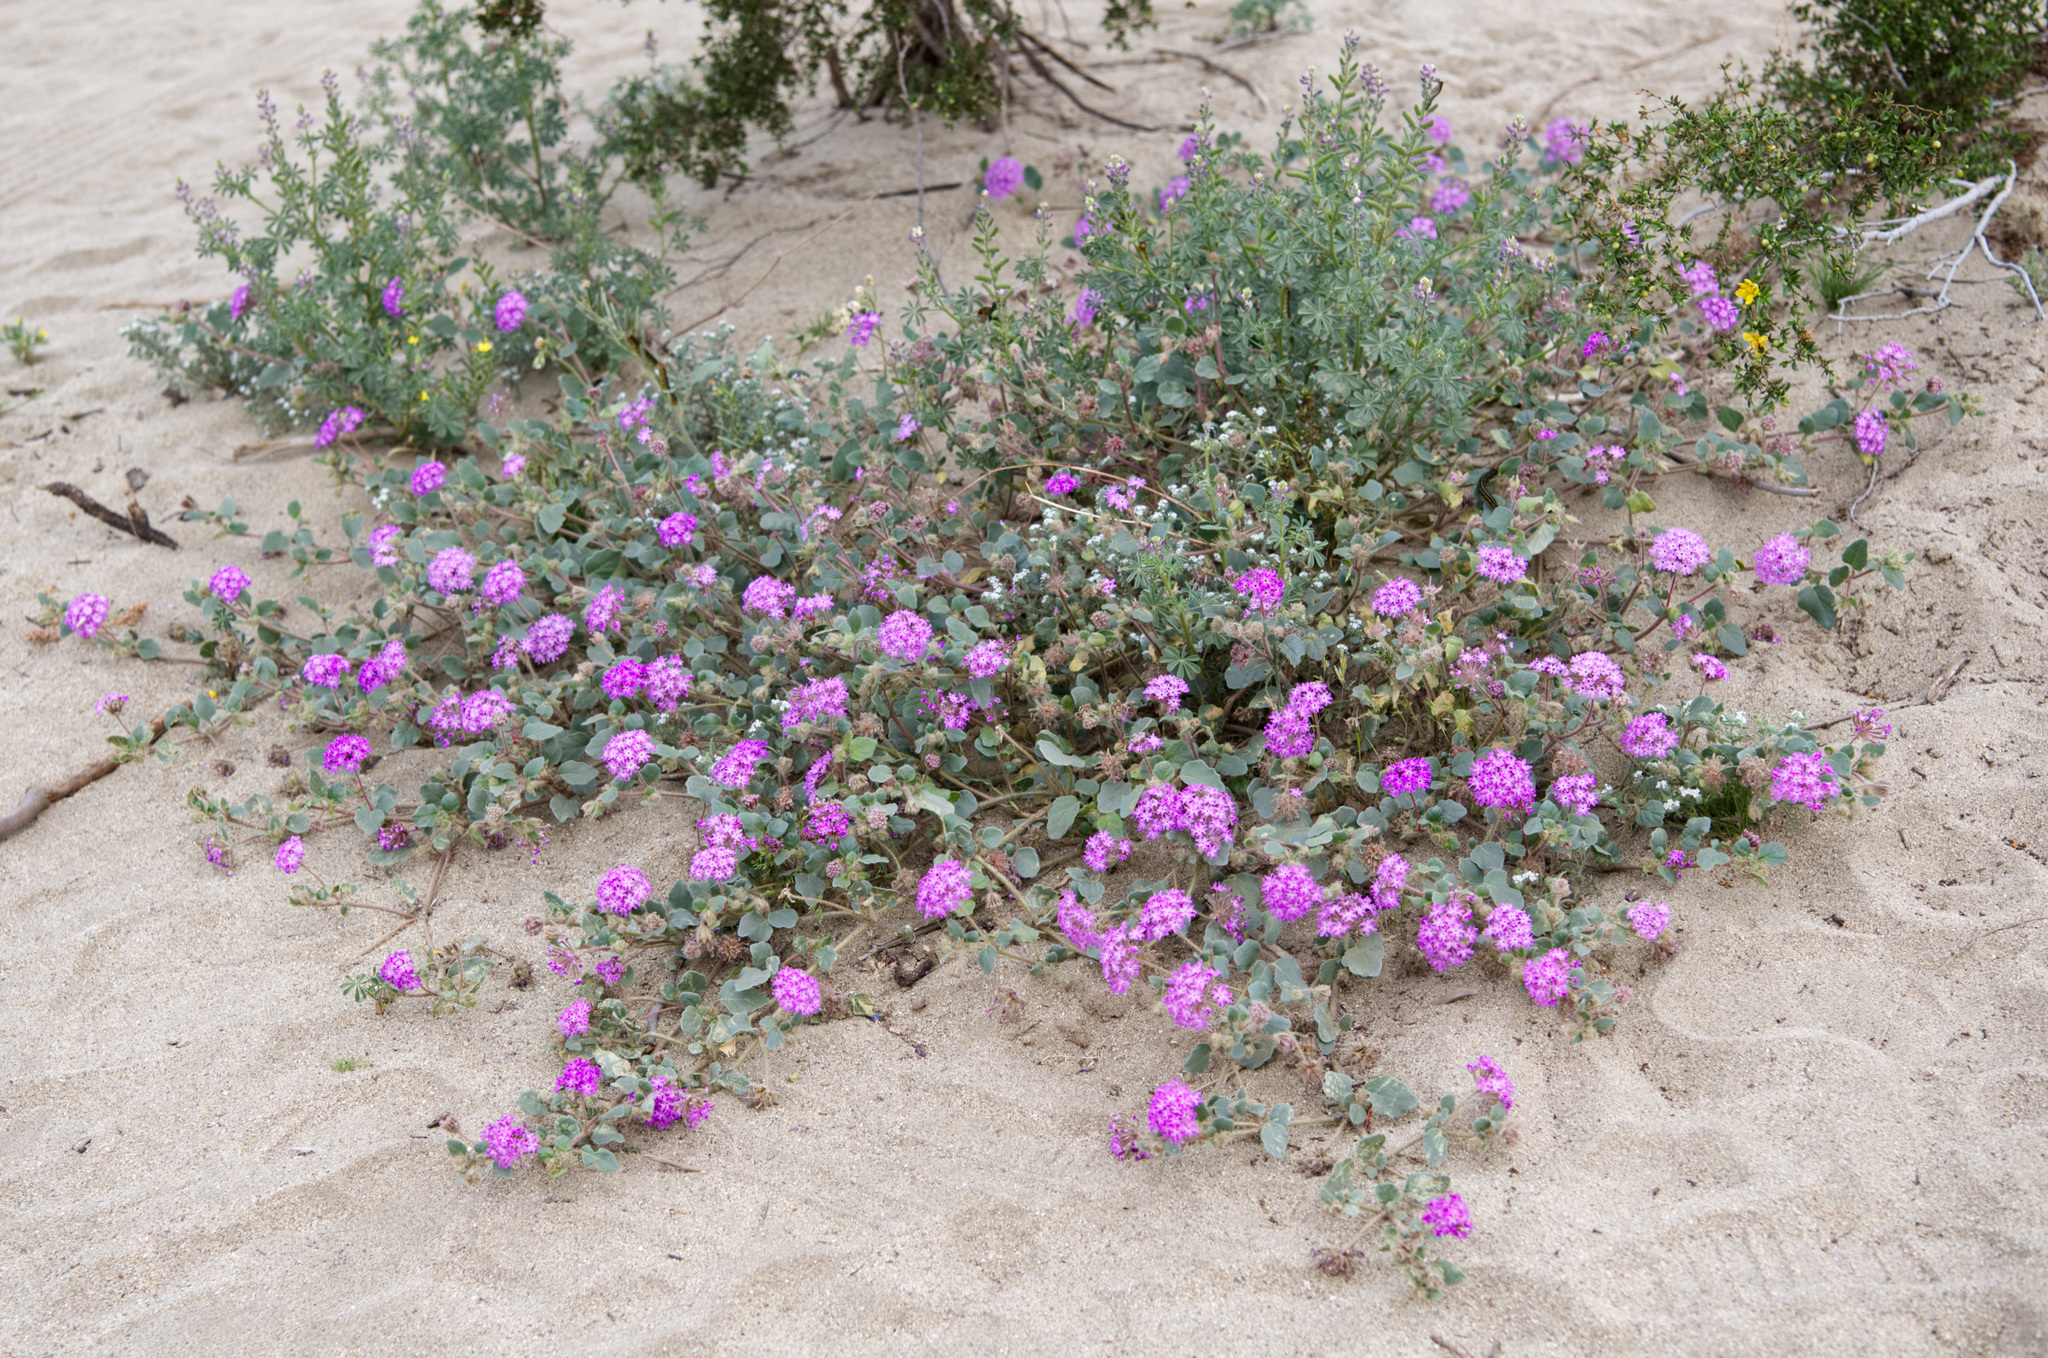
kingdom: Plantae
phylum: Tracheophyta
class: Magnoliopsida
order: Caryophyllales
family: Nyctaginaceae
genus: Abronia
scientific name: Abronia villosa
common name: Desert sand-verbena
